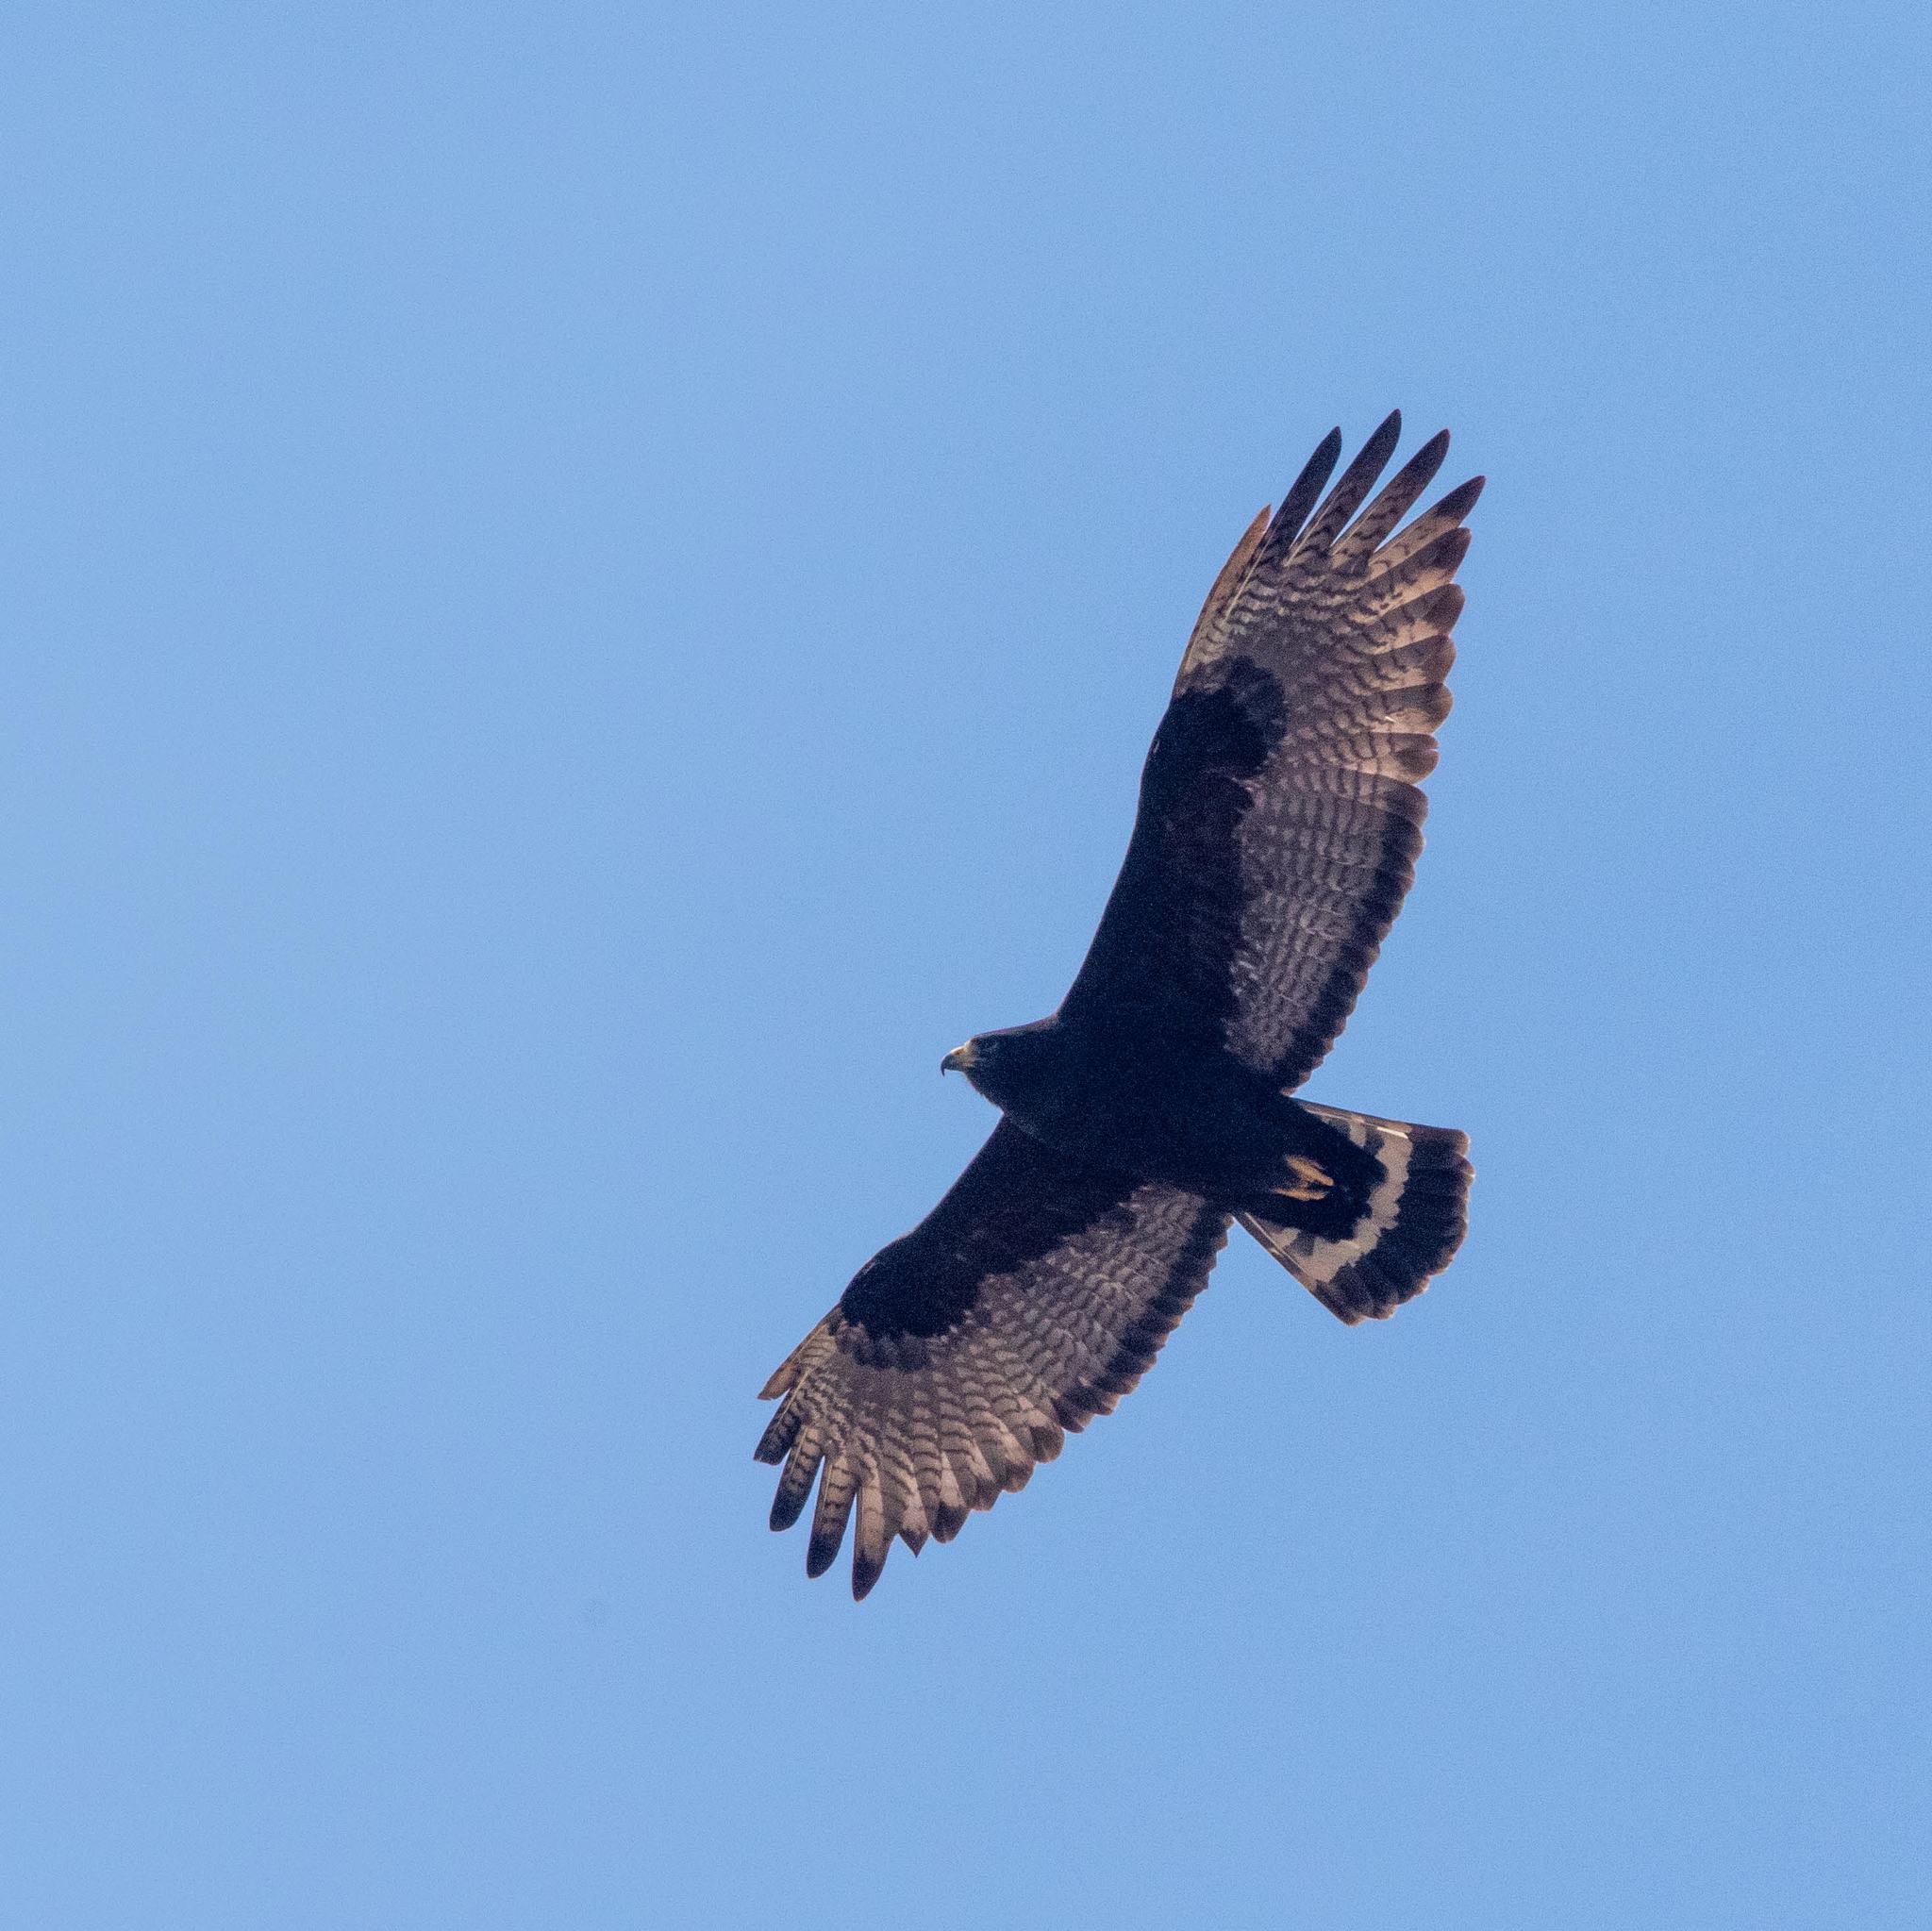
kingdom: Animalia
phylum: Chordata
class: Aves
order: Accipitriformes
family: Accipitridae
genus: Buteo
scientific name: Buteo albonotatus
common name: Zone-tailed hawk
